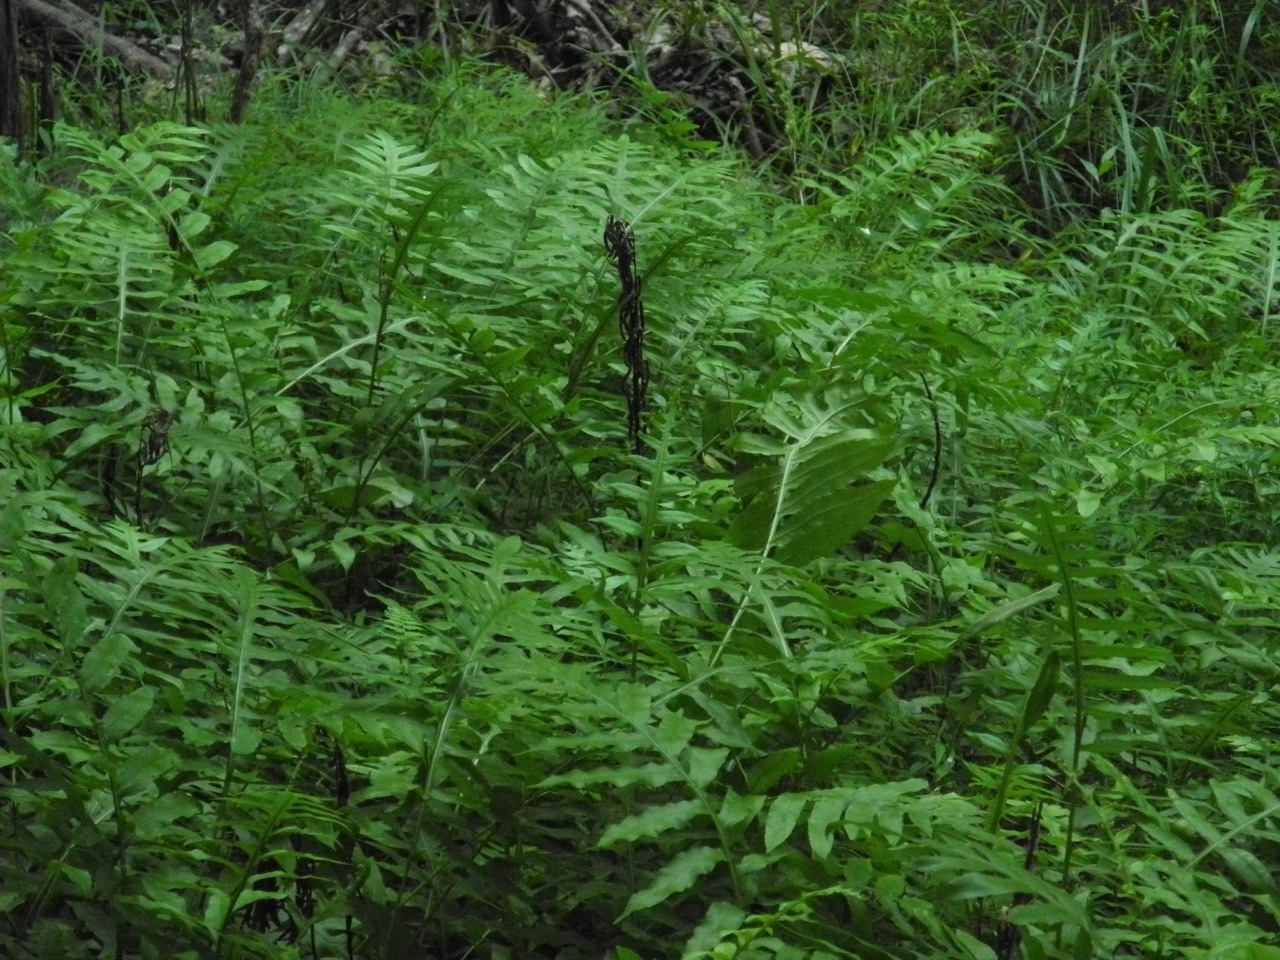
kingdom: Plantae
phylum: Tracheophyta
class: Polypodiopsida
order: Polypodiales
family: Blechnaceae
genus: Lorinseria
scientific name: Lorinseria areolata
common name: Dwarf chain fern
